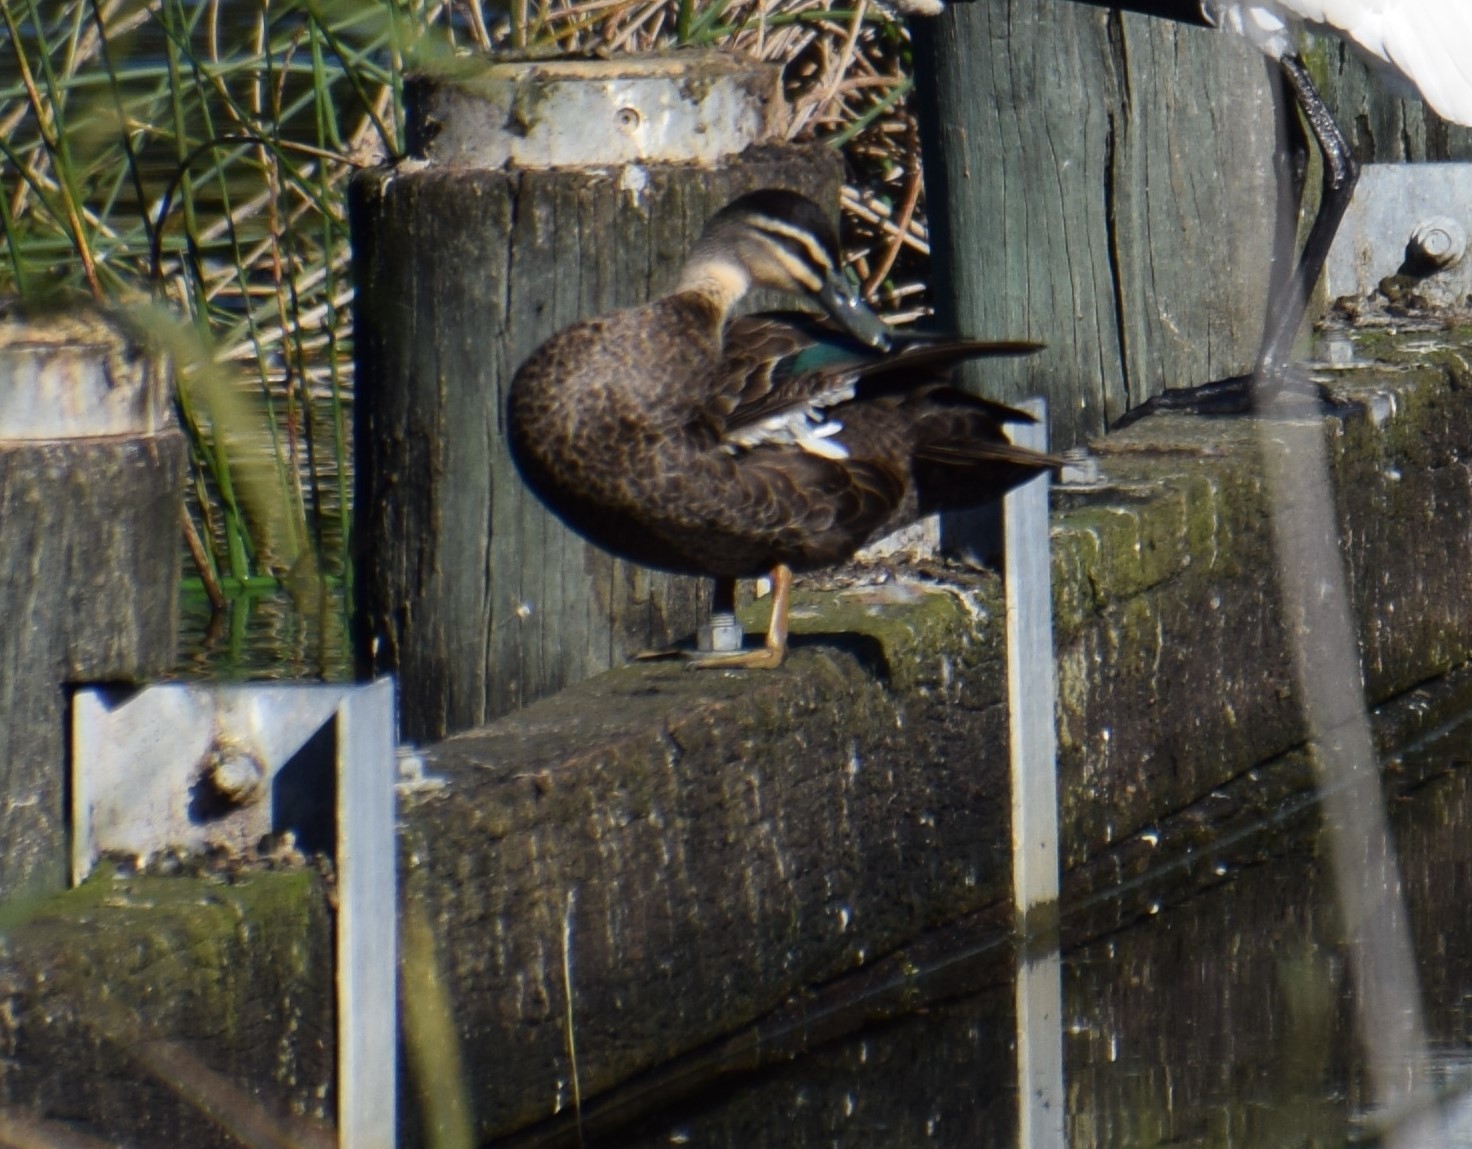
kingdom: Animalia
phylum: Chordata
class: Aves
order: Anseriformes
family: Anatidae
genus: Anas
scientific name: Anas superciliosa
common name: Pacific black duck
